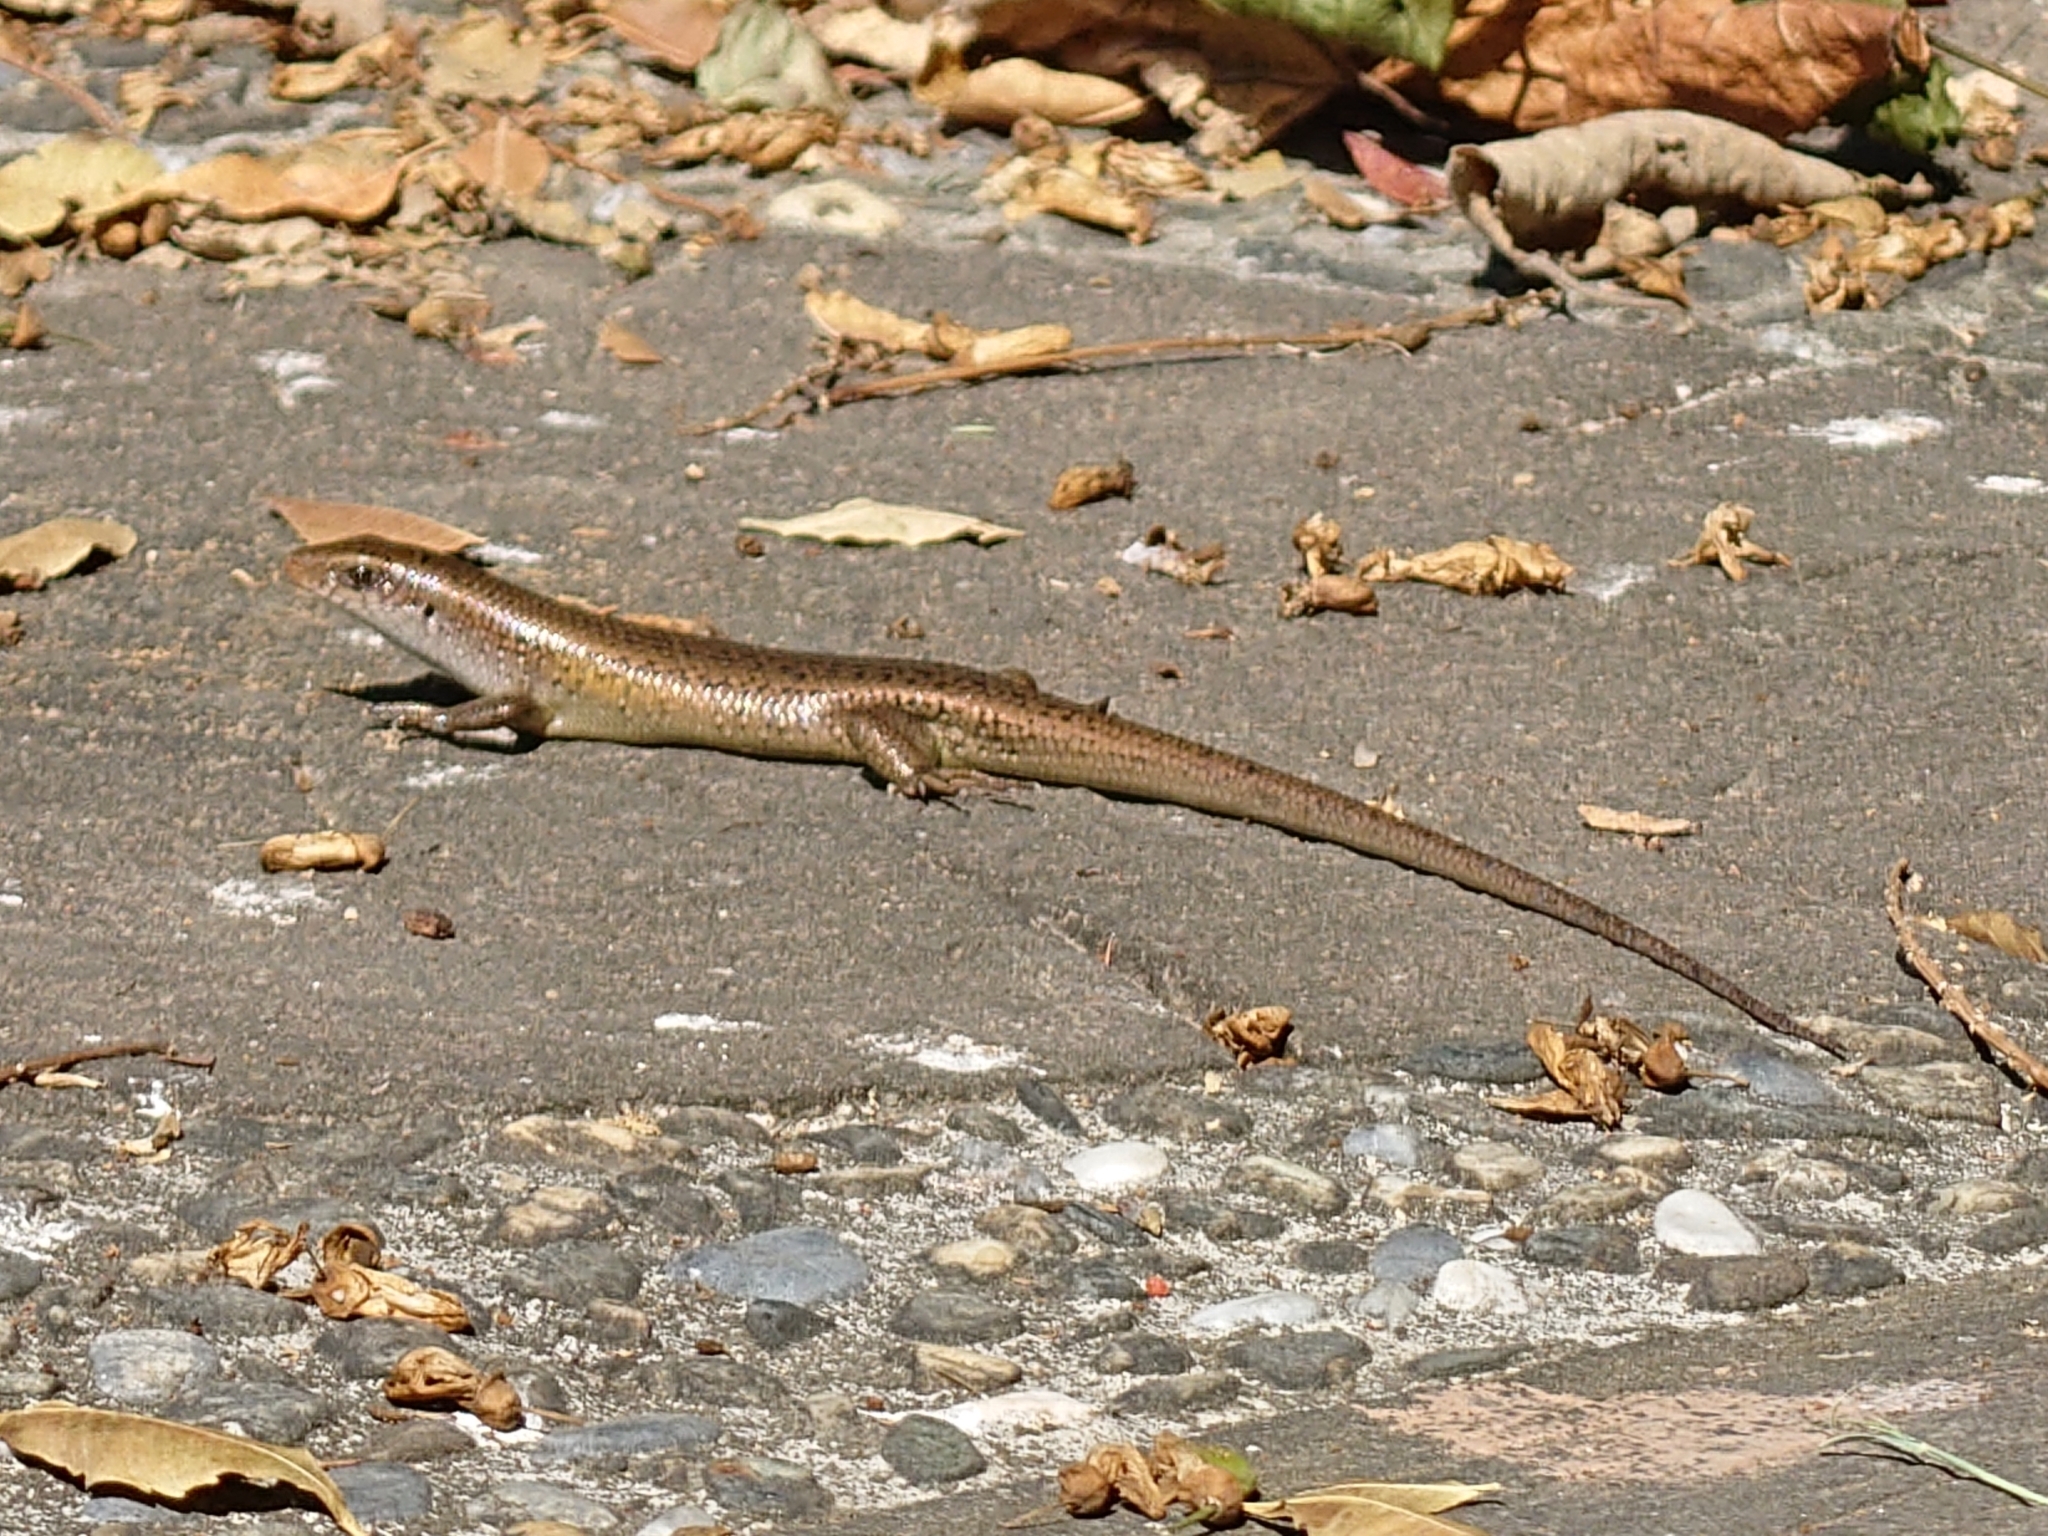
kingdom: Animalia
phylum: Chordata
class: Squamata
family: Scincidae
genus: Eutropis
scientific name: Eutropis multifasciata
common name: Common mabuya
